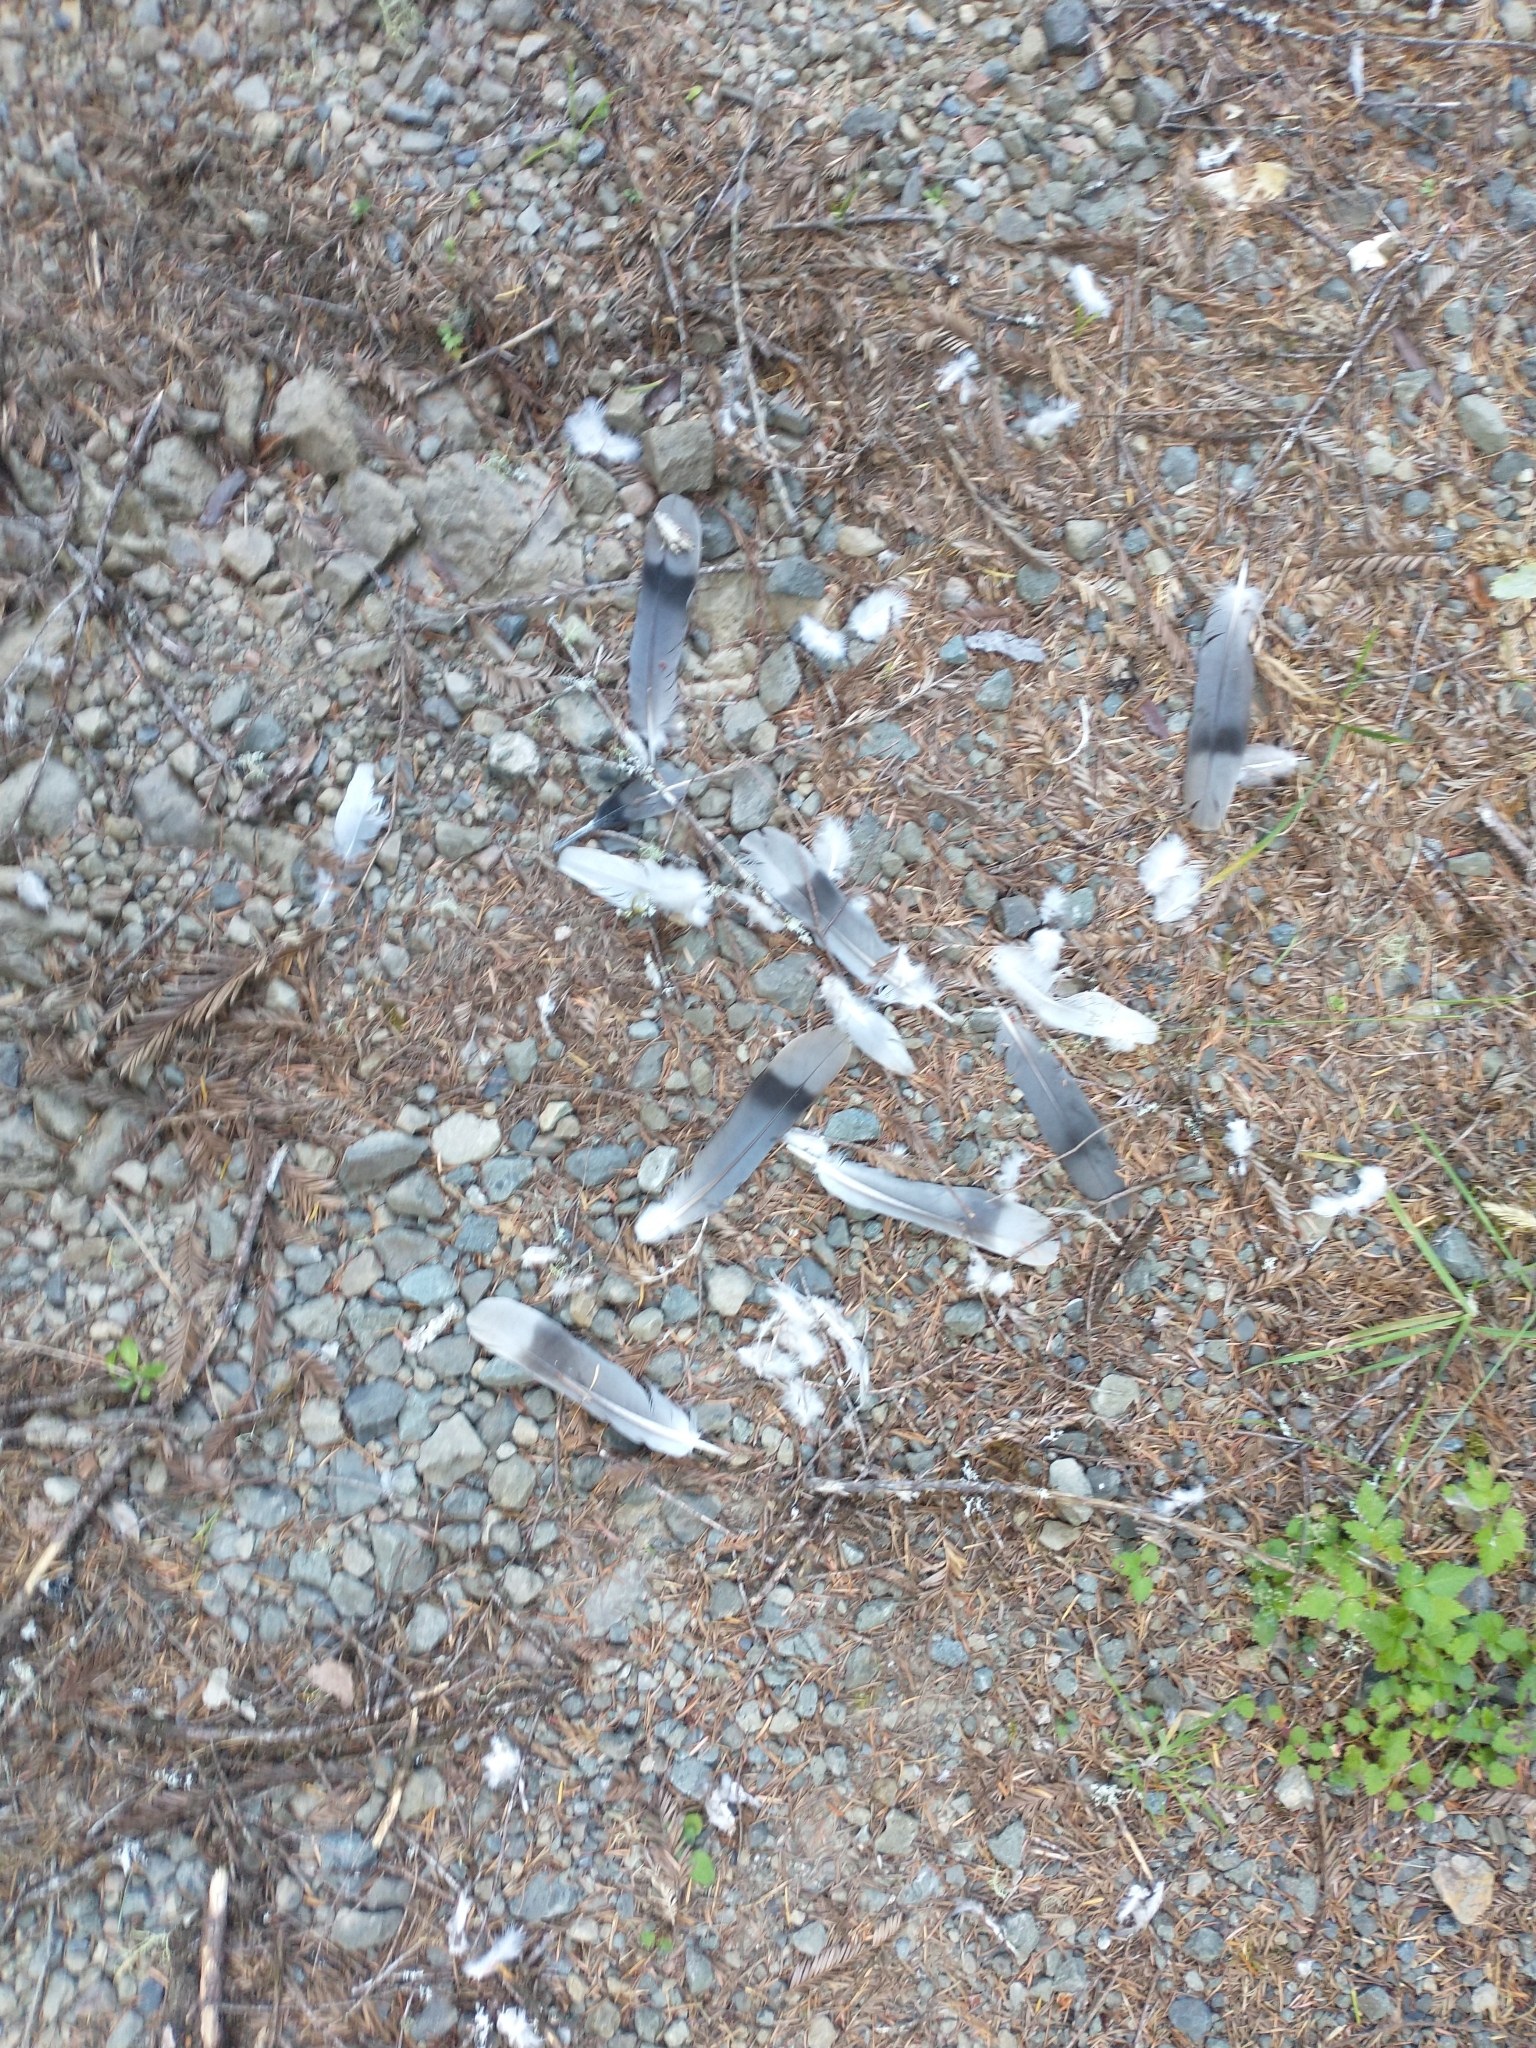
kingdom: Animalia
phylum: Chordata
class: Aves
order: Columbiformes
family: Columbidae
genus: Patagioenas
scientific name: Patagioenas fasciata
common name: Band-tailed pigeon
